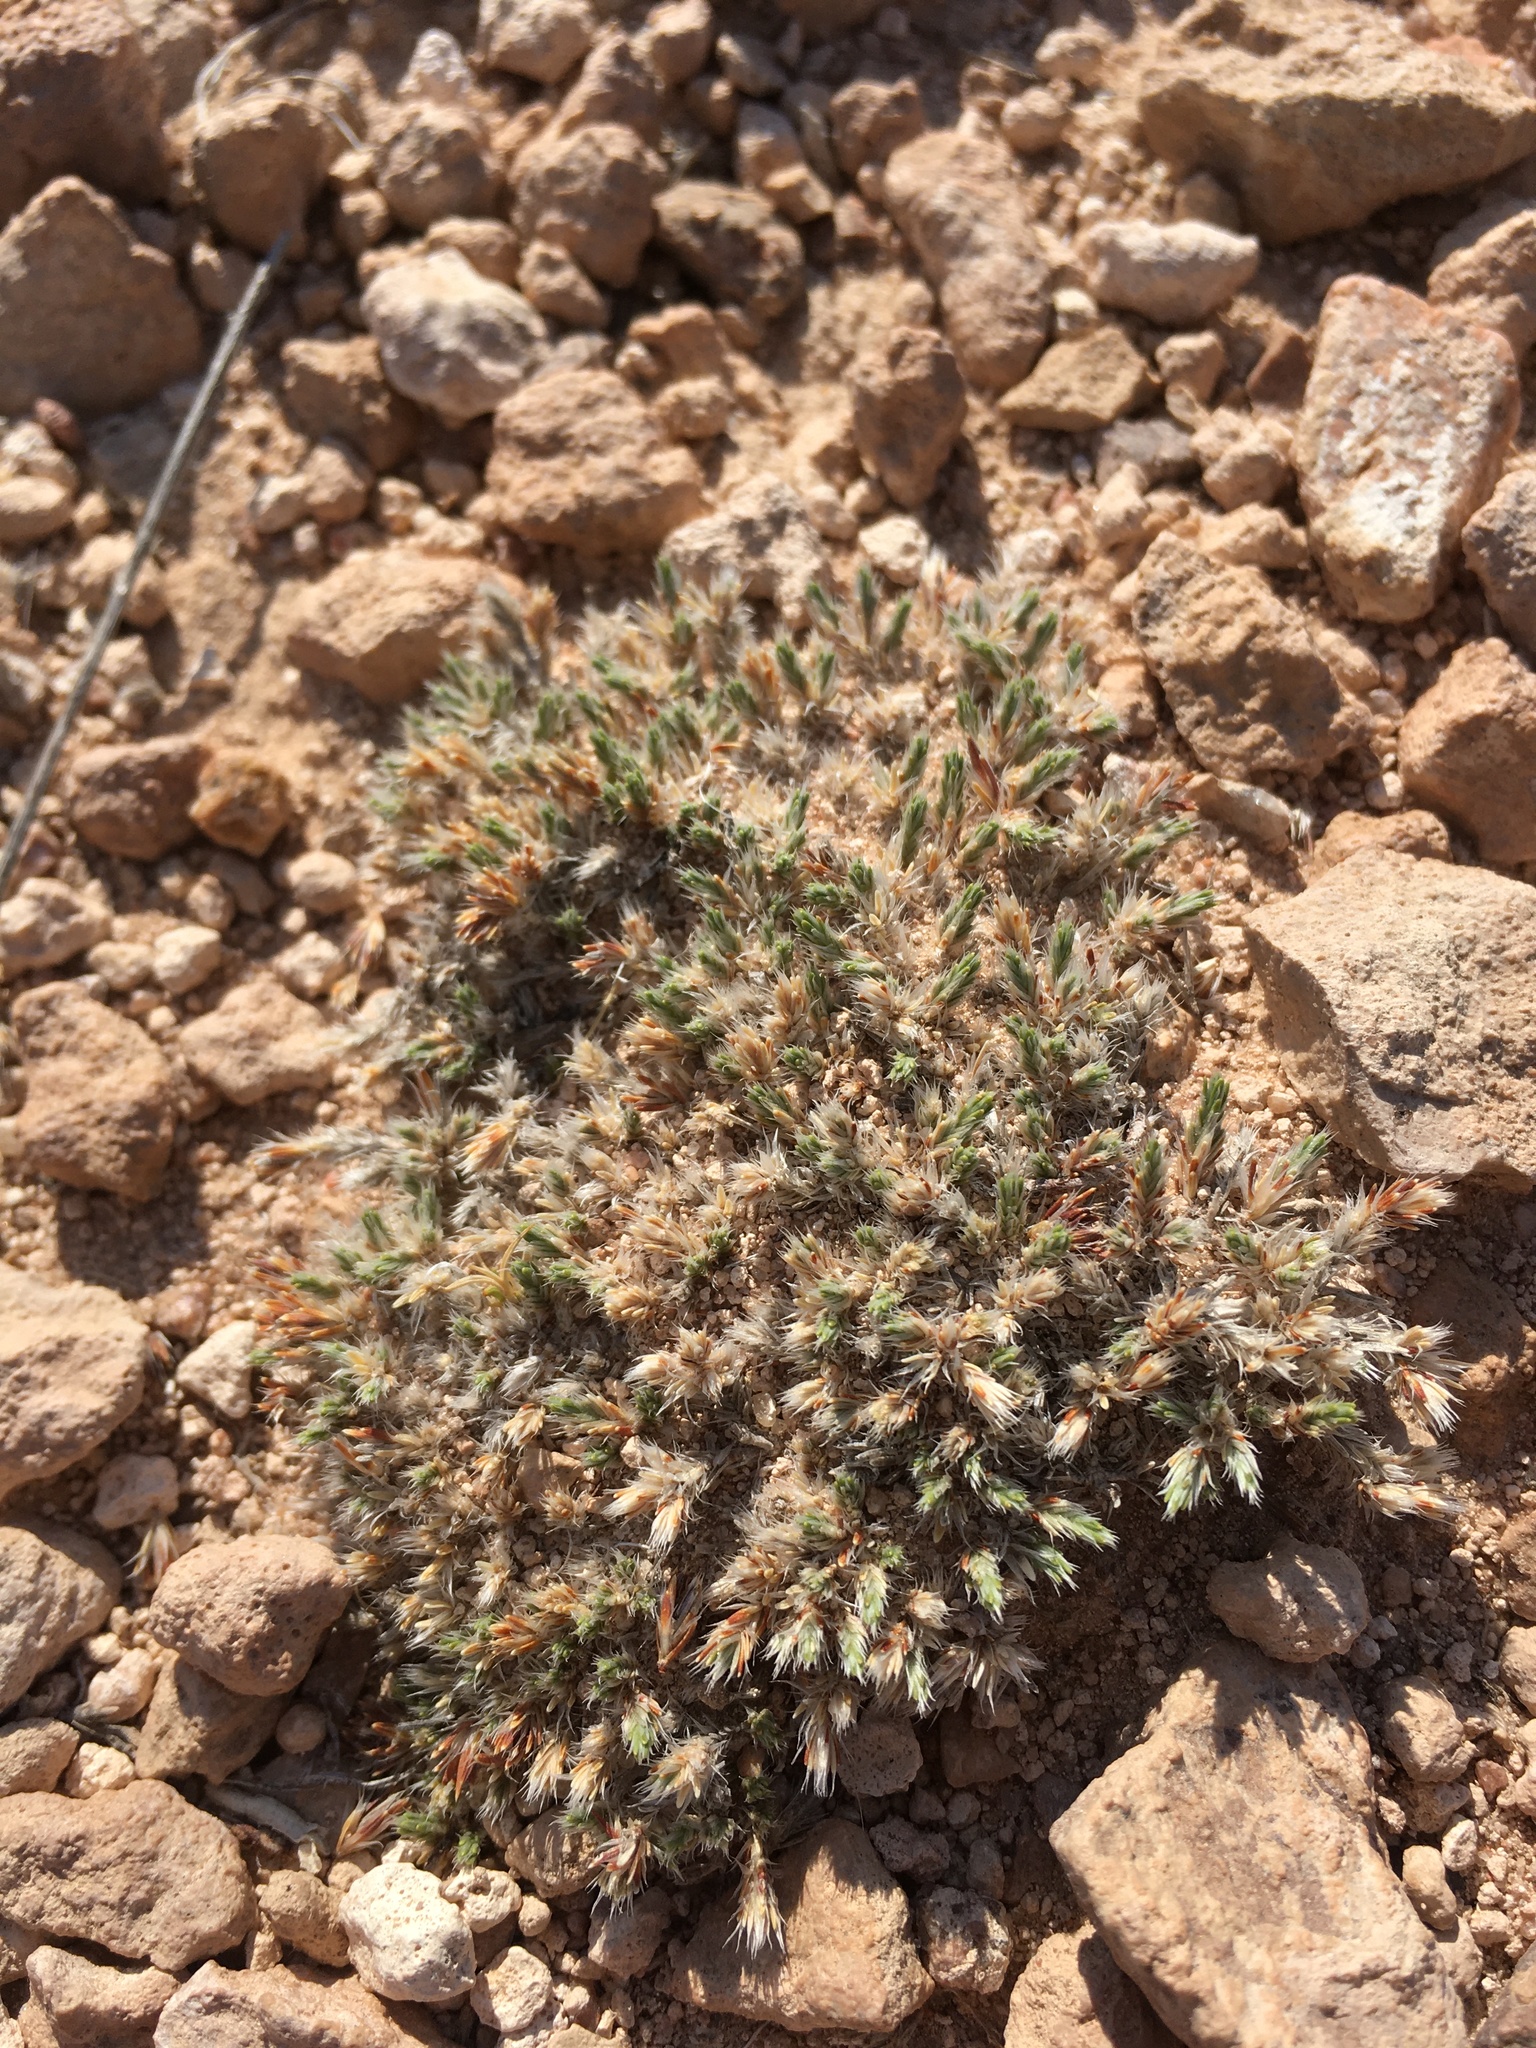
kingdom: Plantae
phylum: Tracheophyta
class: Magnoliopsida
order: Caryophyllales
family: Caryophyllaceae
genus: Paronychia
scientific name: Paronychia sessiliflora
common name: Creeping nailwort
